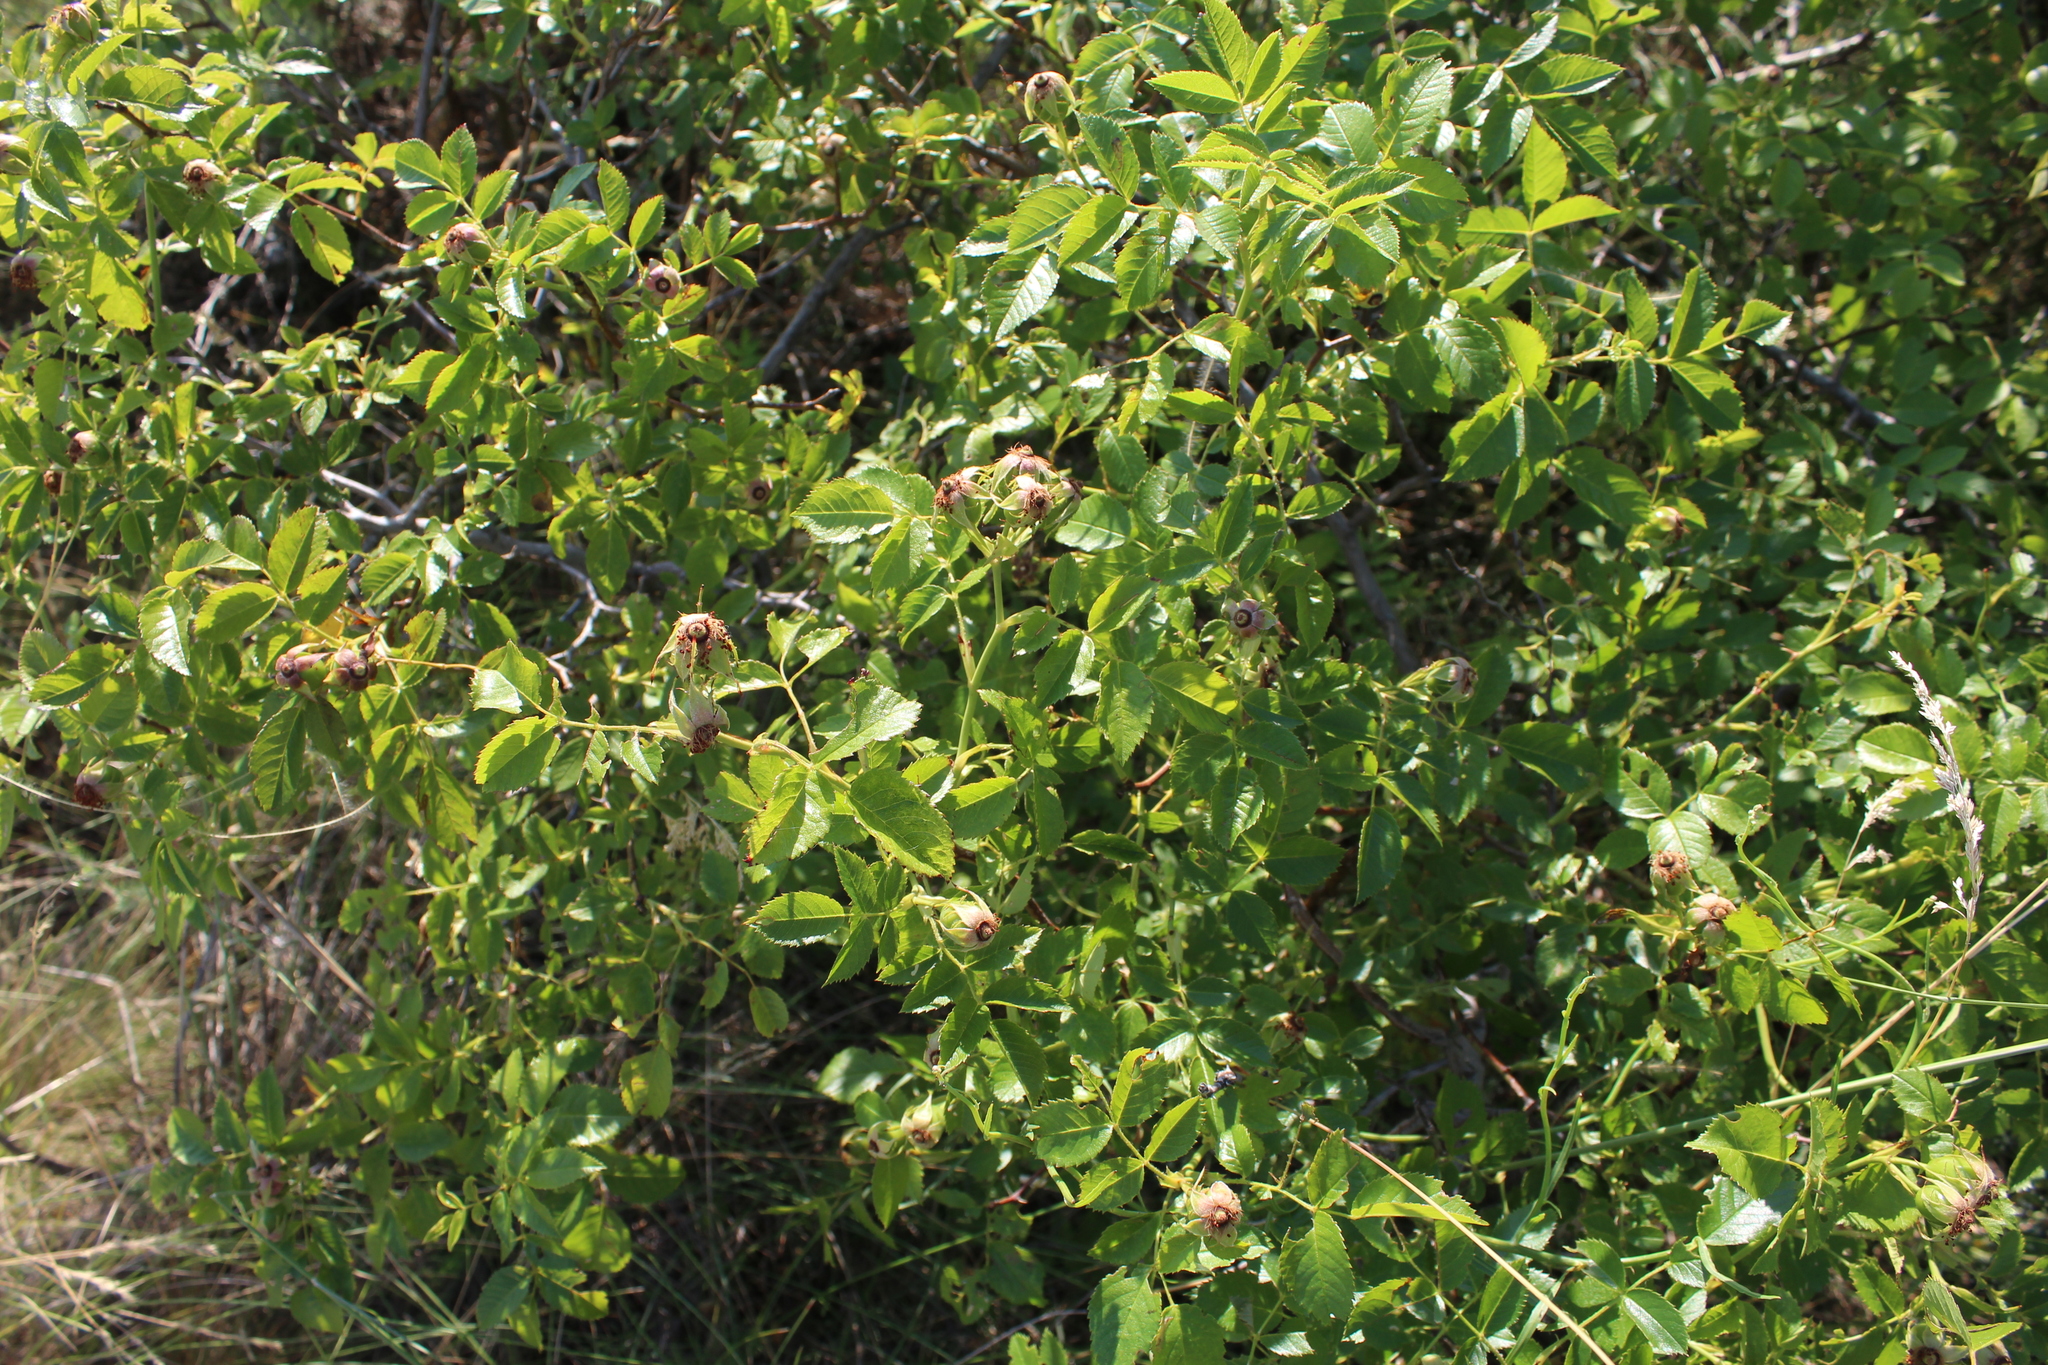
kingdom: Plantae
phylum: Tracheophyta
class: Magnoliopsida
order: Rosales
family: Rosaceae
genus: Rosa
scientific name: Rosa corymbifera
